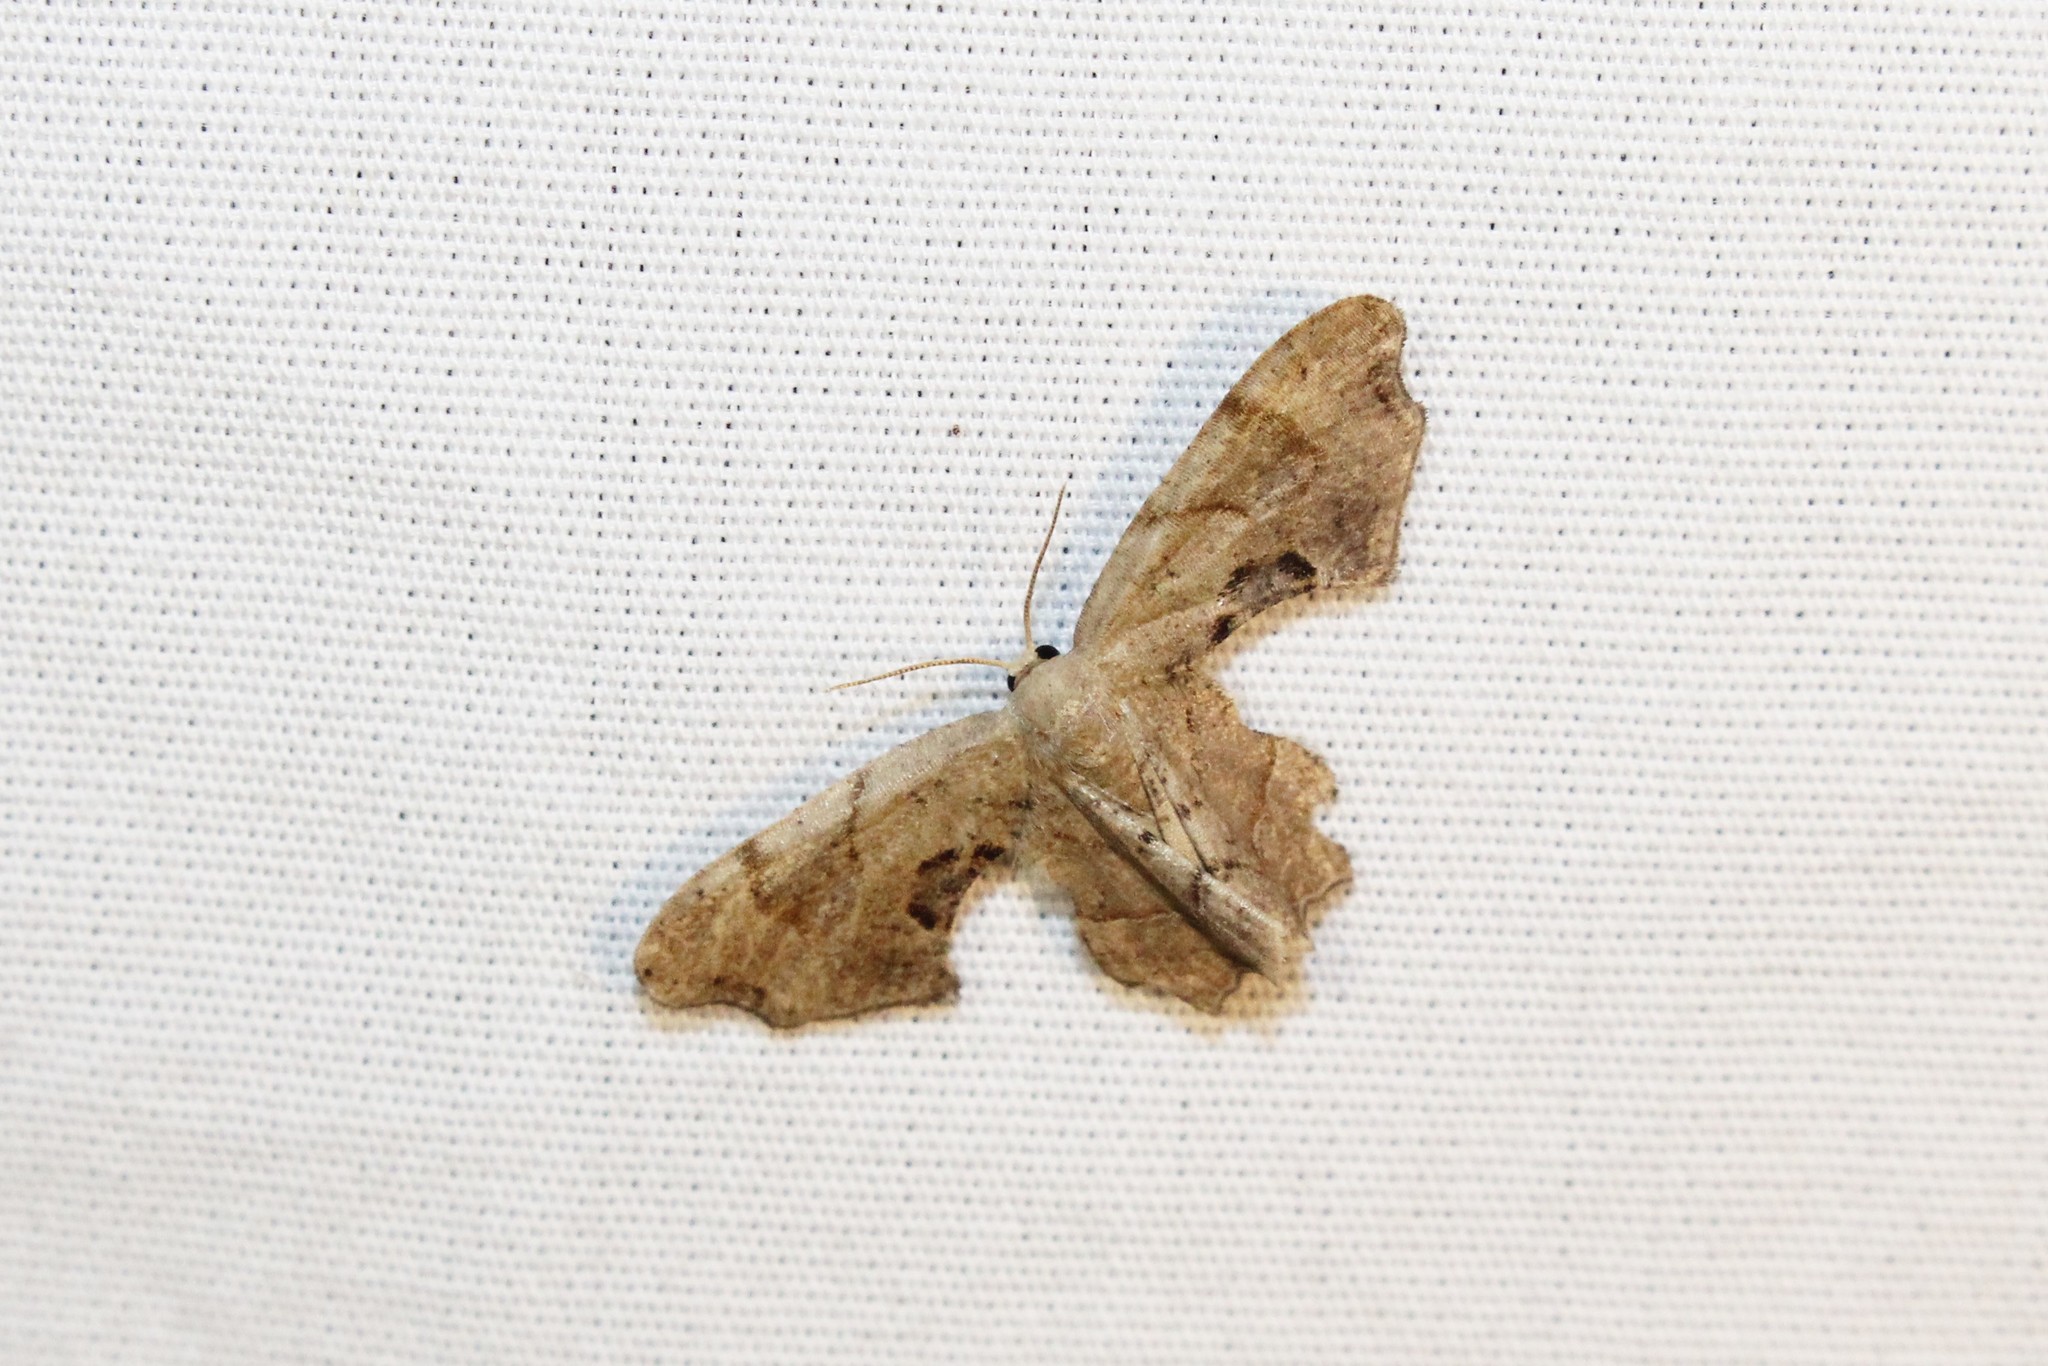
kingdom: Animalia
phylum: Arthropoda
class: Insecta
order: Lepidoptera
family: Uraniidae
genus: Epiplema
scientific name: Epiplema Calledapteryx dryopterata
